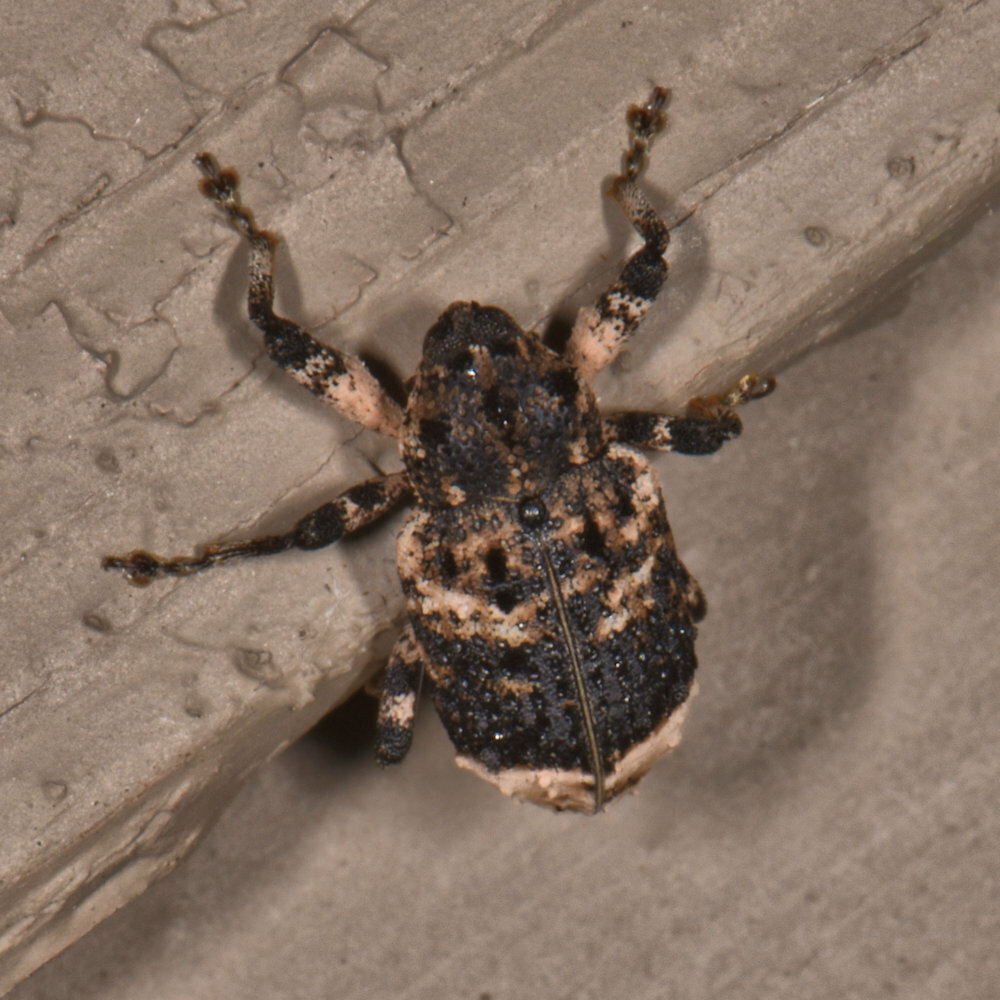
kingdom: Animalia
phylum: Arthropoda
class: Insecta
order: Coleoptera
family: Curculionidae
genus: Cryptorhynchus
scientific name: Cryptorhynchus lapathi
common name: Weevil
